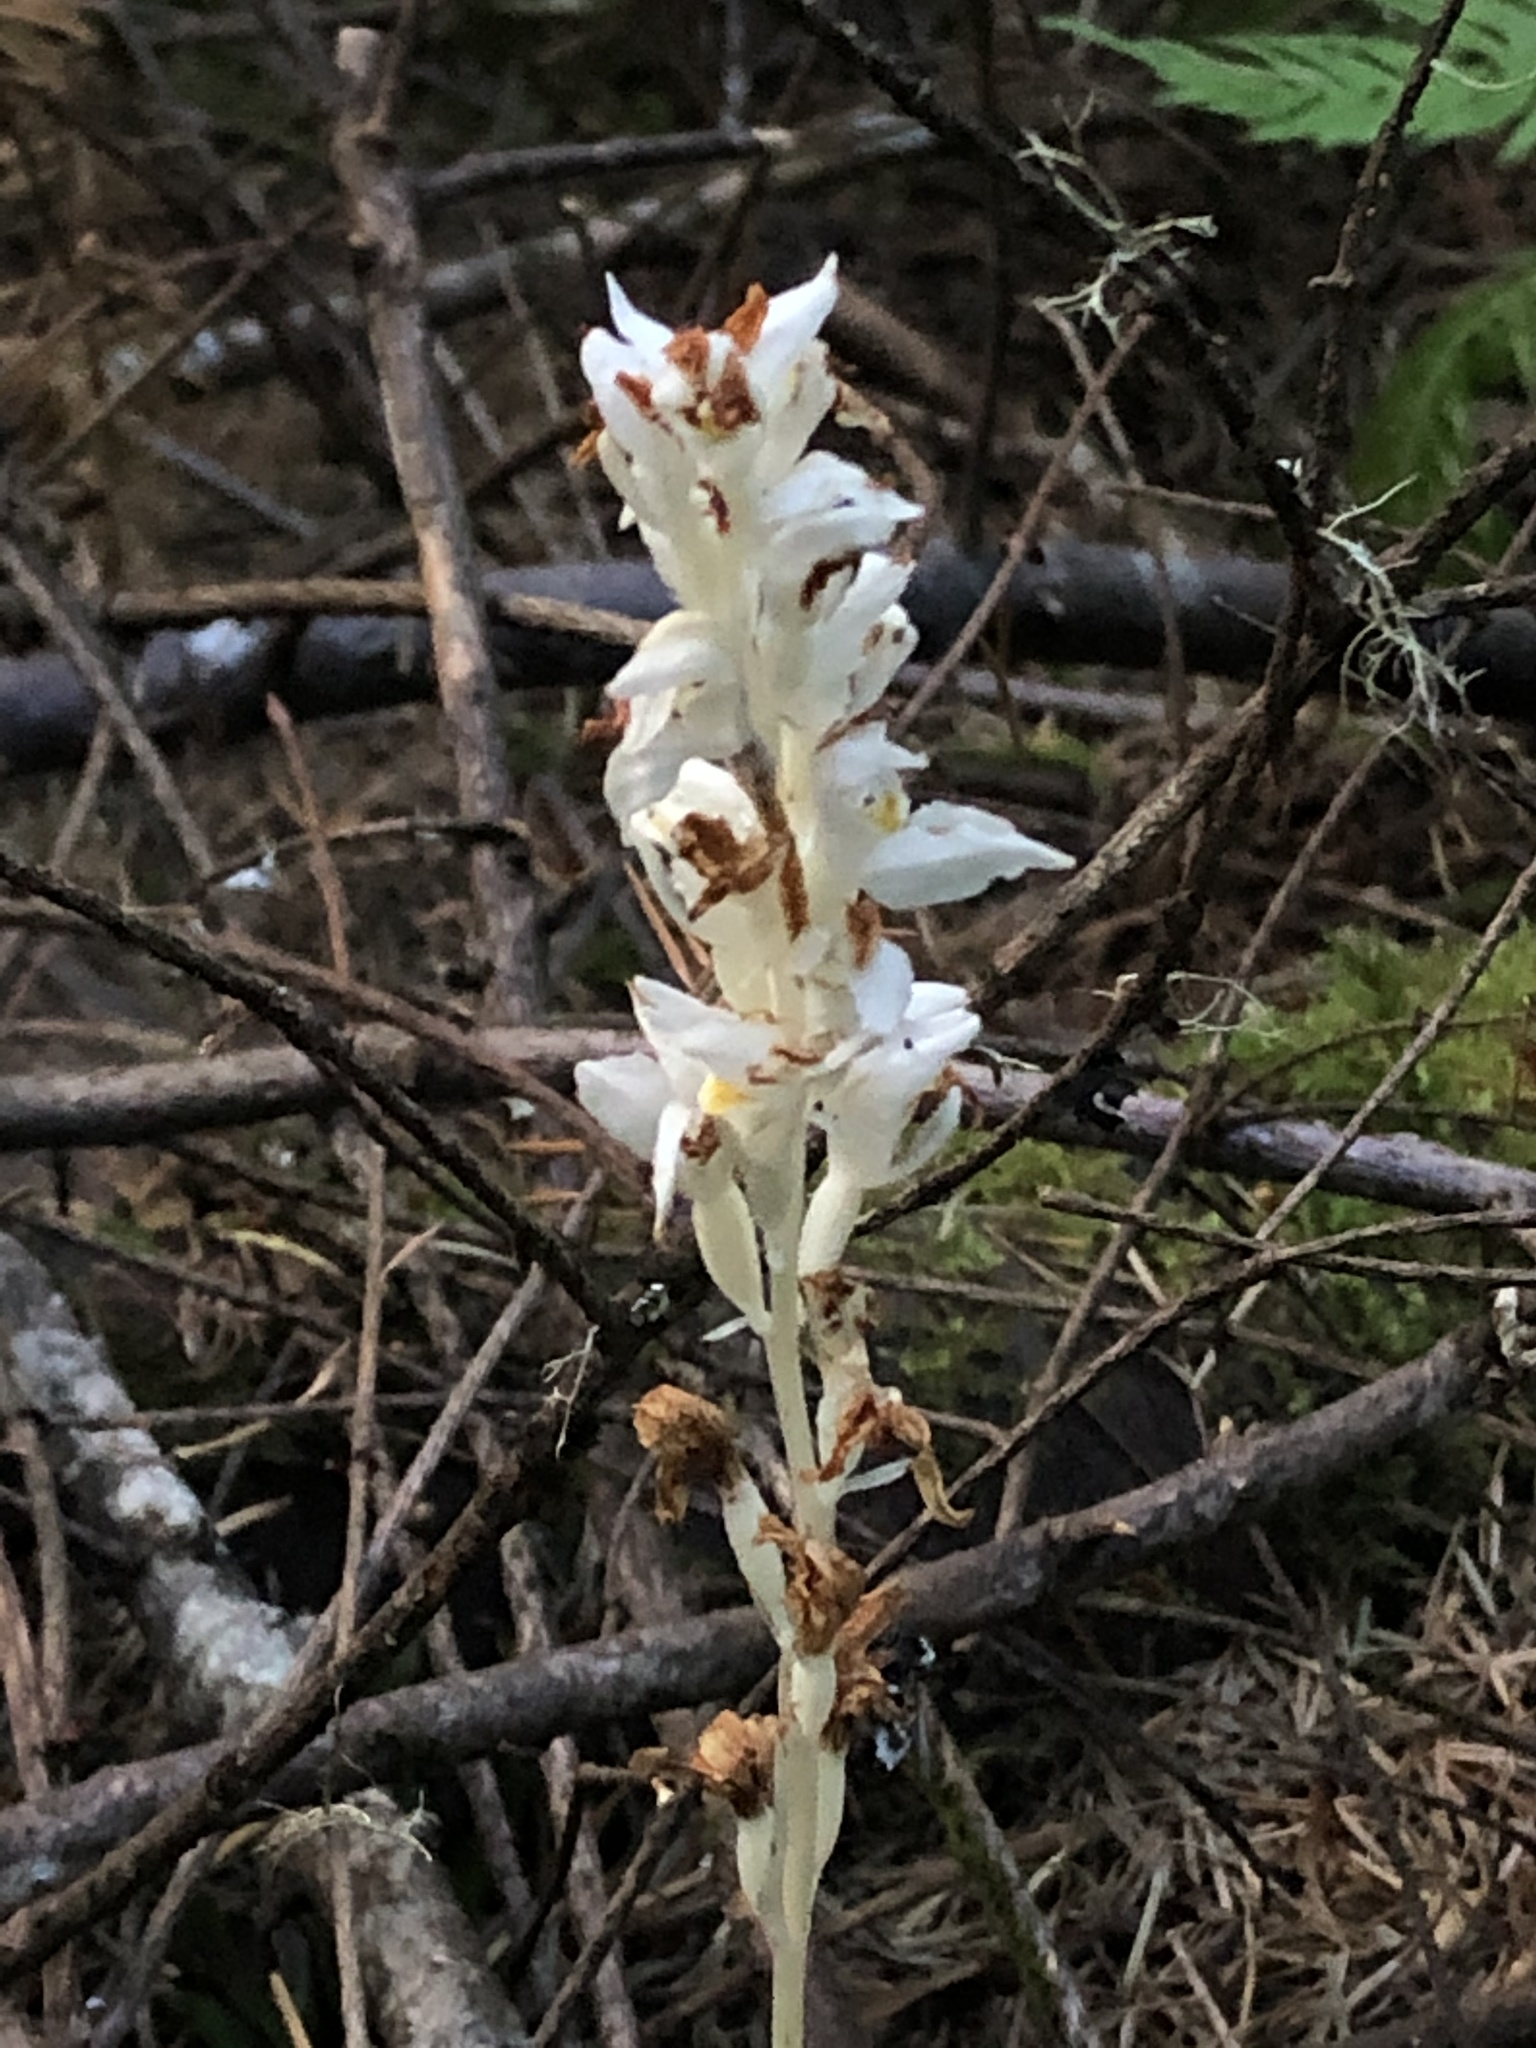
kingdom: Plantae
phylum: Tracheophyta
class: Liliopsida
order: Asparagales
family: Orchidaceae
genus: Cephalanthera
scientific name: Cephalanthera austiniae
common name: Phantom orchid
